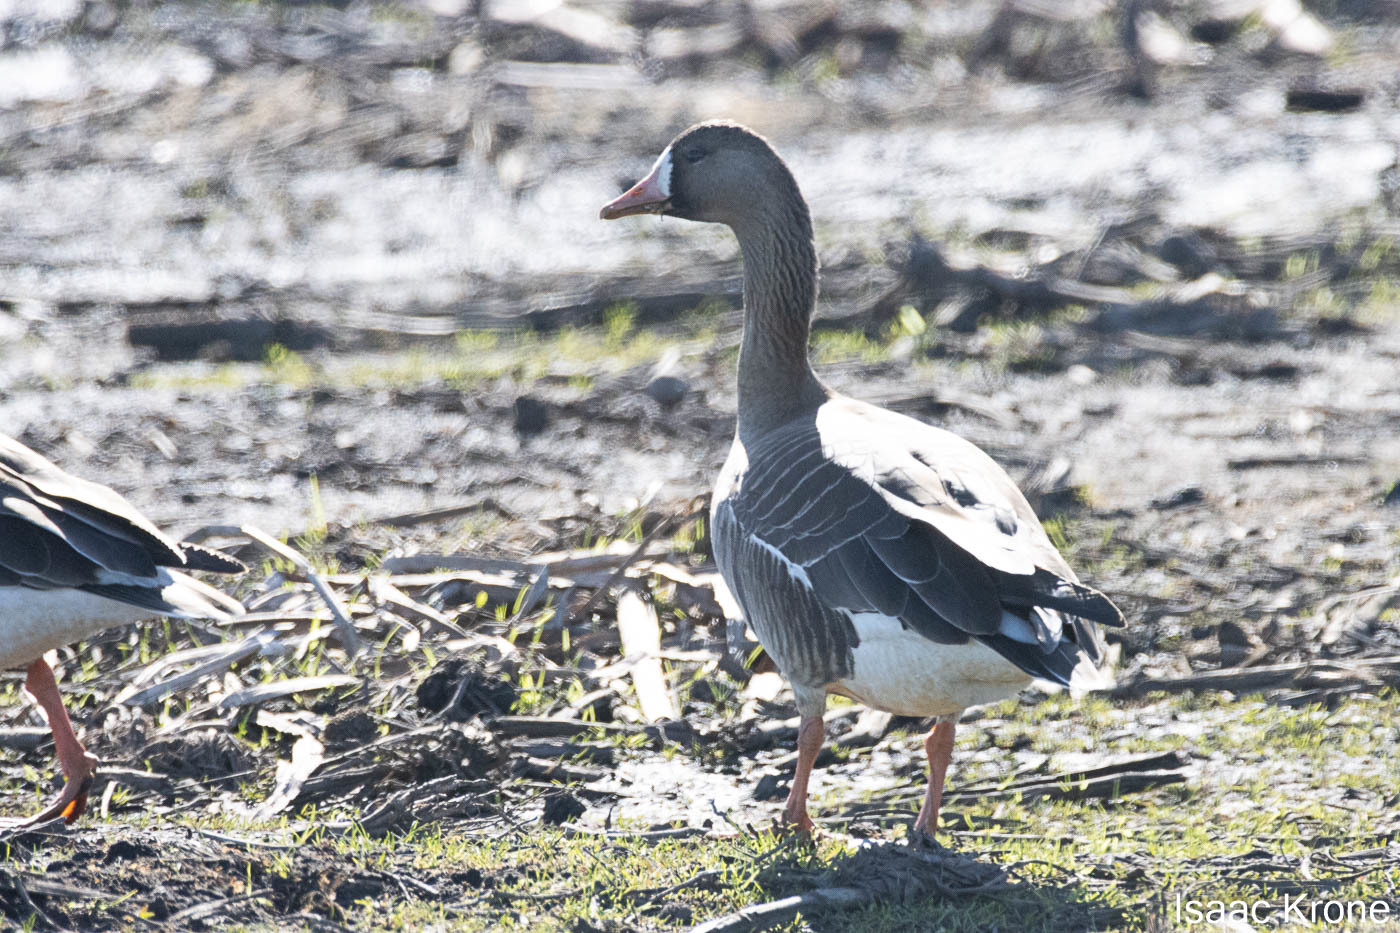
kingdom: Animalia
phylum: Chordata
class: Aves
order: Anseriformes
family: Anatidae
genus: Anser
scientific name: Anser albifrons
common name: Greater white-fronted goose
